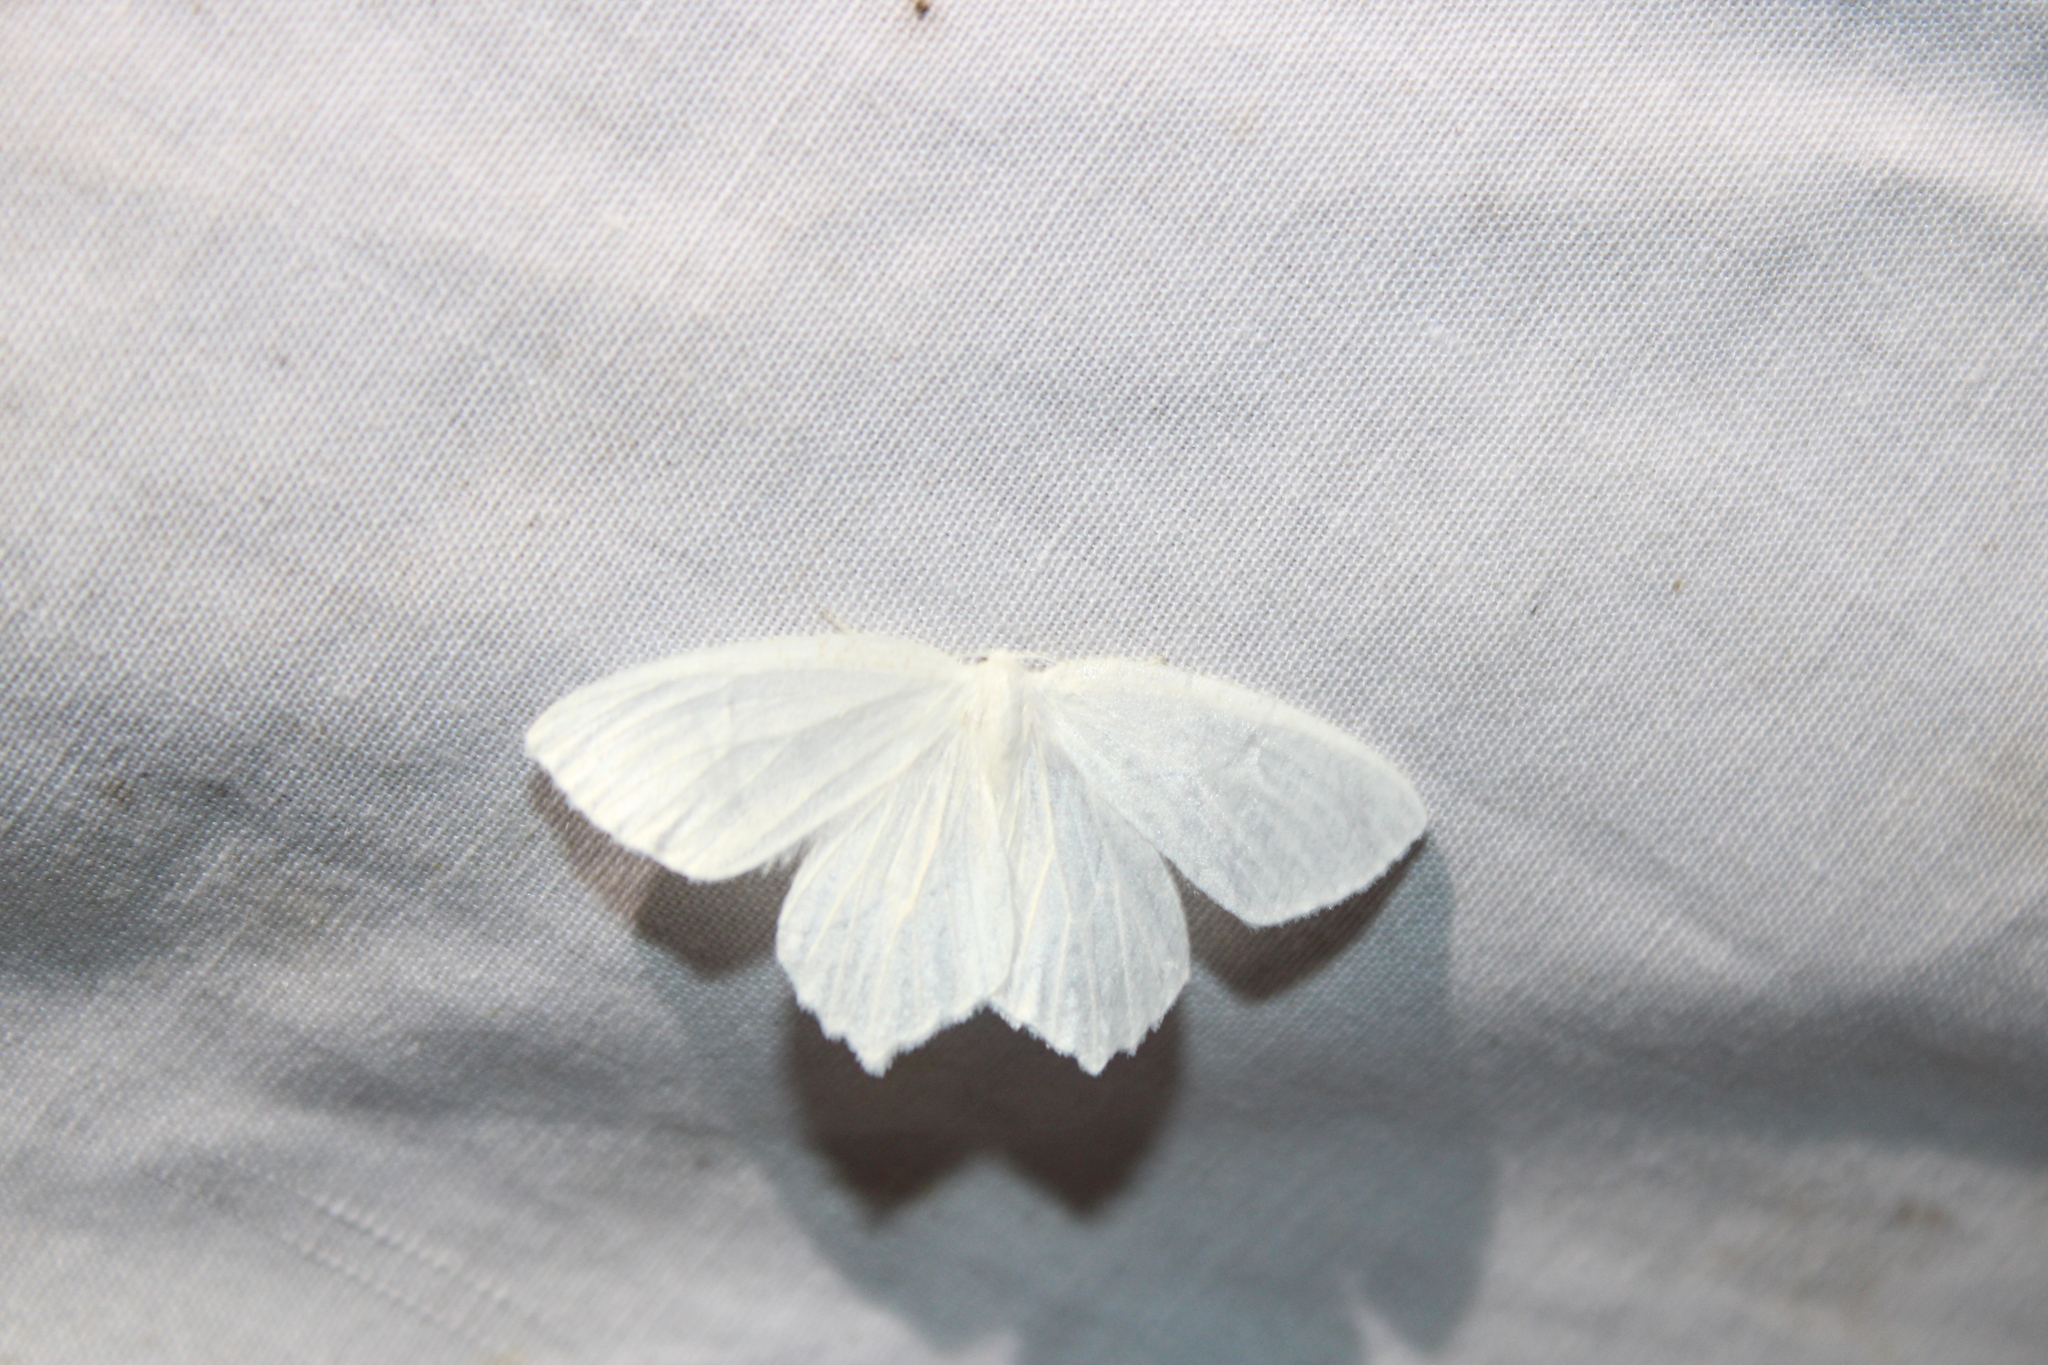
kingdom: Animalia
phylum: Arthropoda
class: Insecta
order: Lepidoptera
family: Geometridae
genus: Eugonobapta
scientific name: Eugonobapta nivosaria
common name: Snowy geometer
